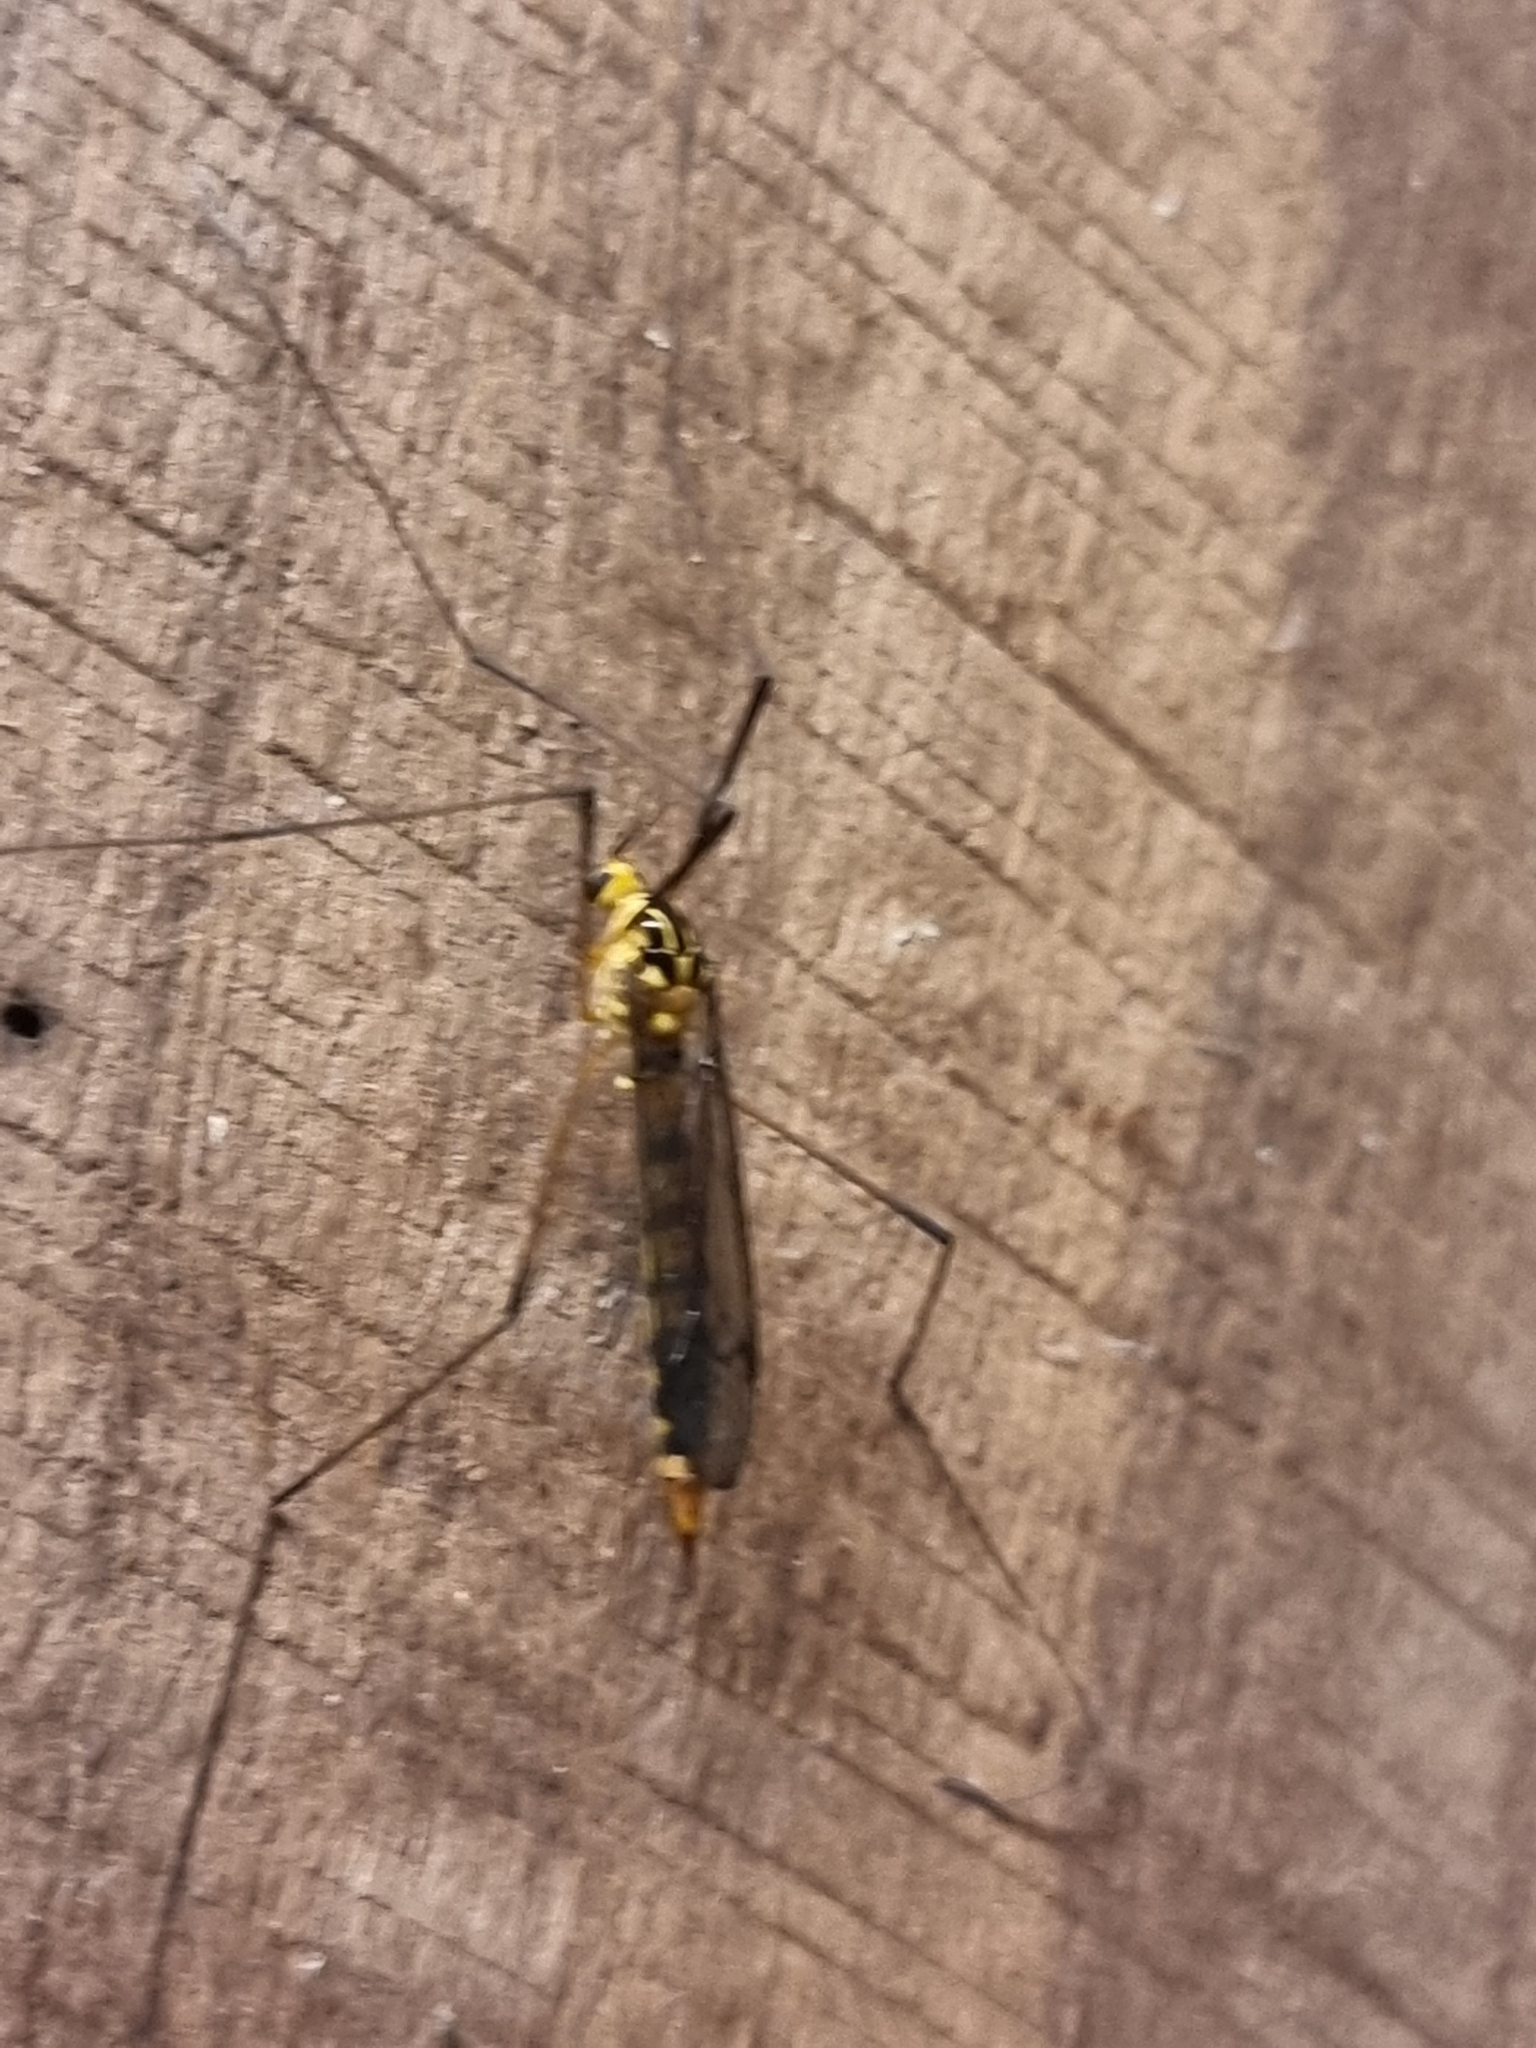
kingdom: Animalia
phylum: Arthropoda
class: Insecta
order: Diptera
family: Tipulidae
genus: Nephrotoma
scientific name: Nephrotoma australasiae
